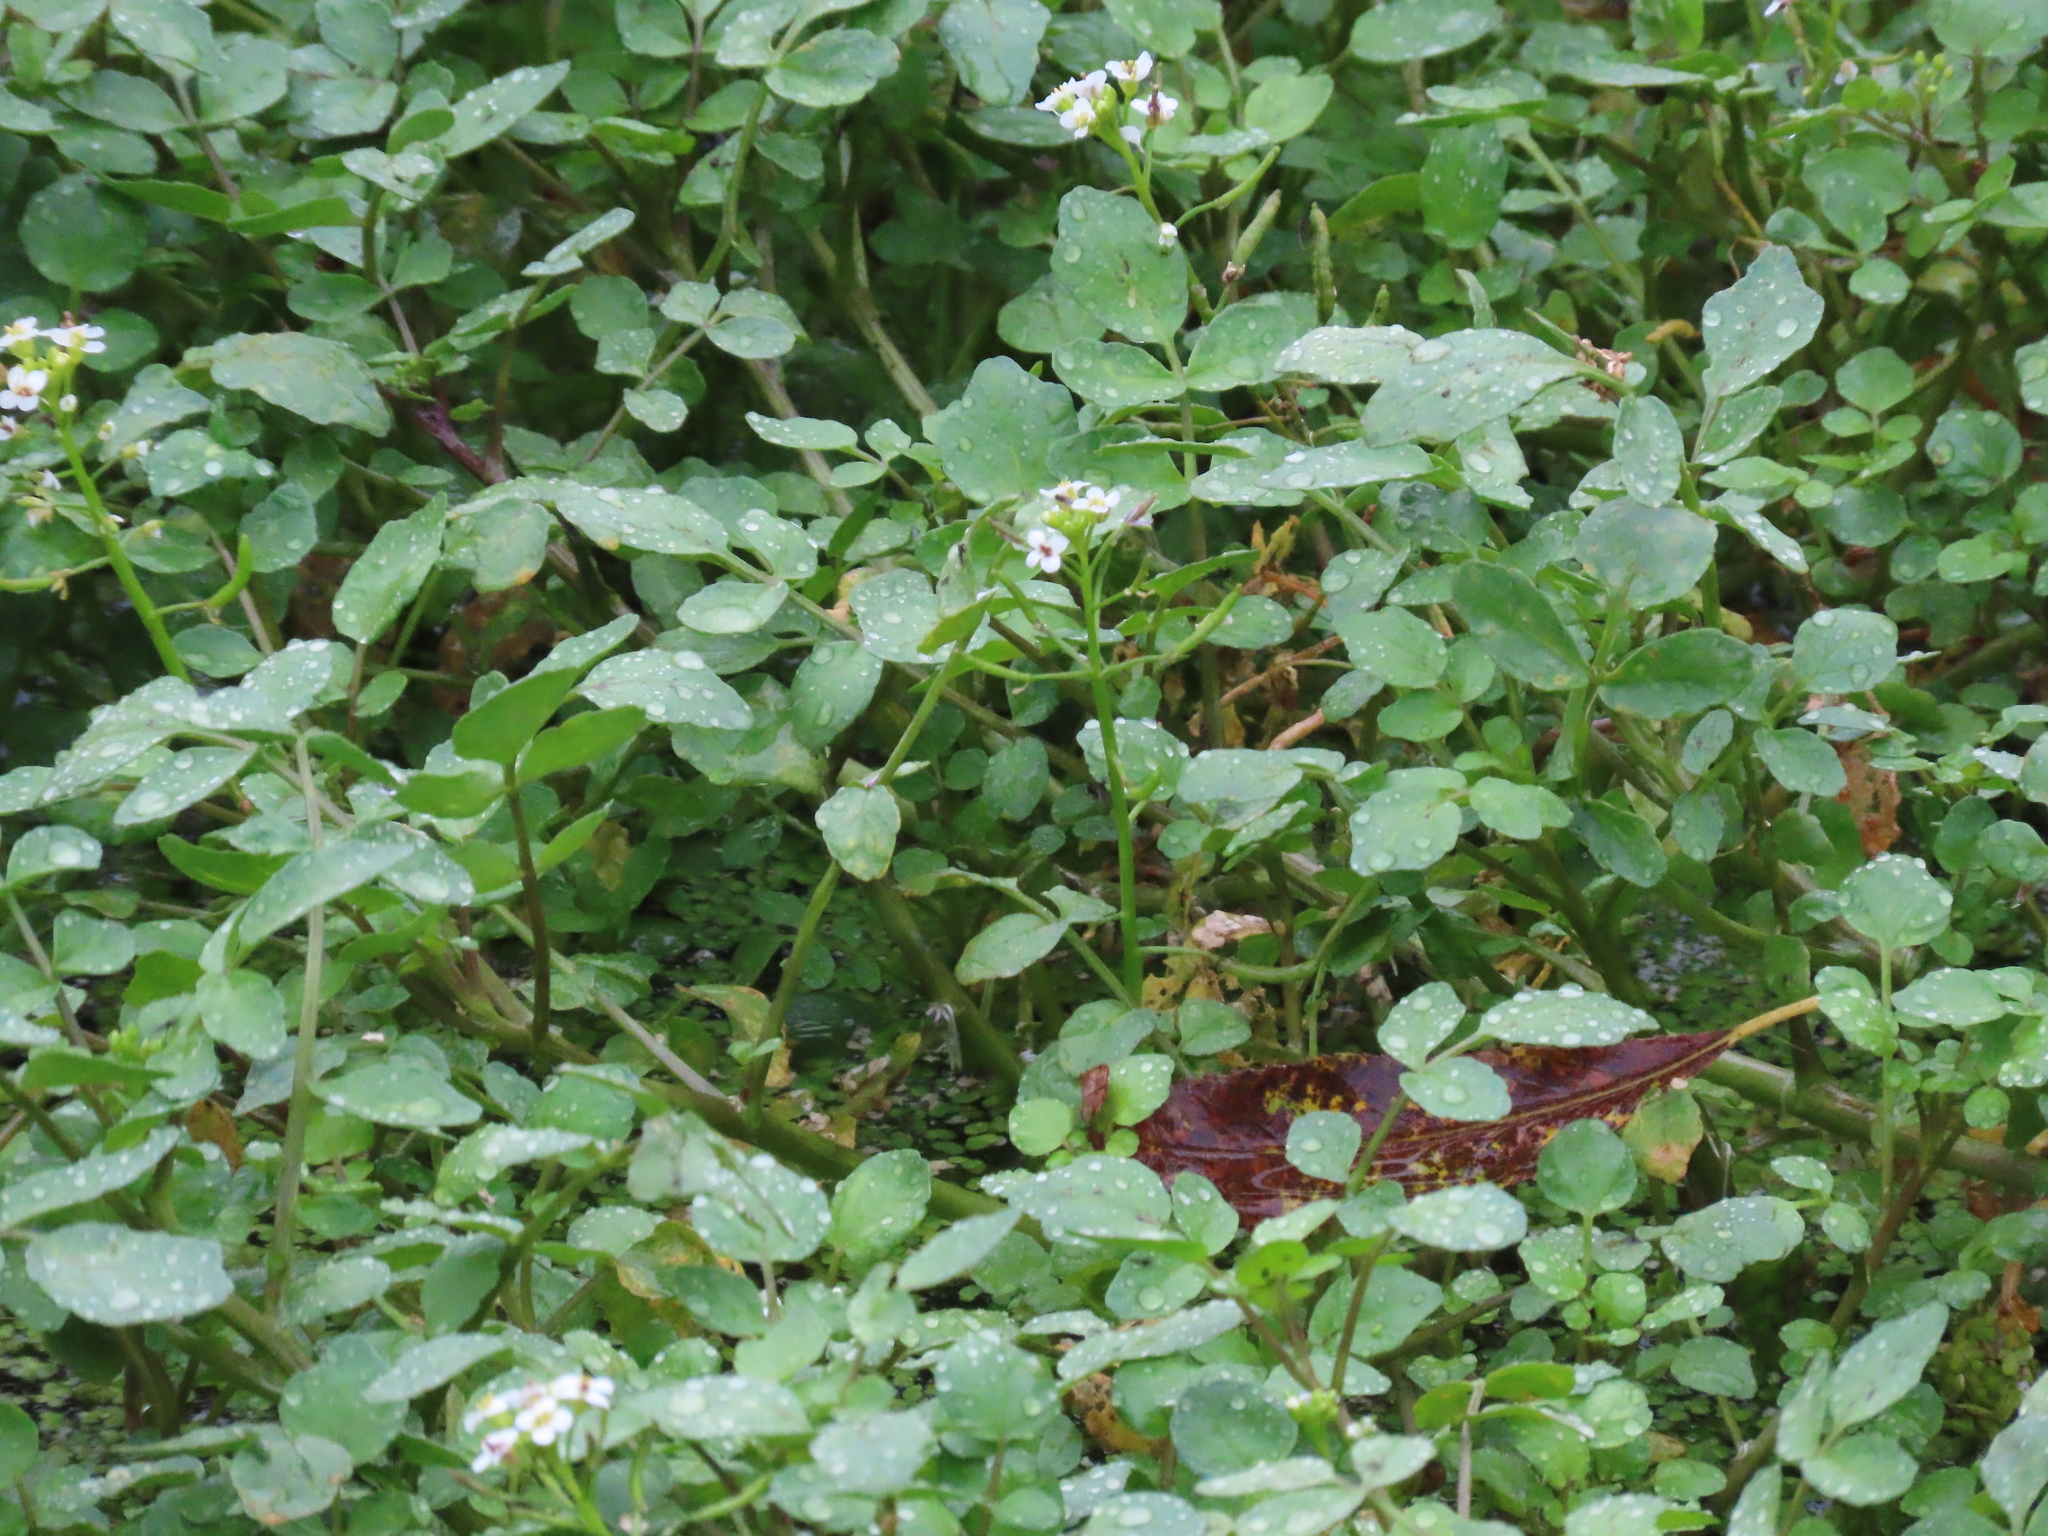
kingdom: Plantae
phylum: Tracheophyta
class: Magnoliopsida
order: Brassicales
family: Brassicaceae
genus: Nasturtium
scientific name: Nasturtium officinale
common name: Watercress
